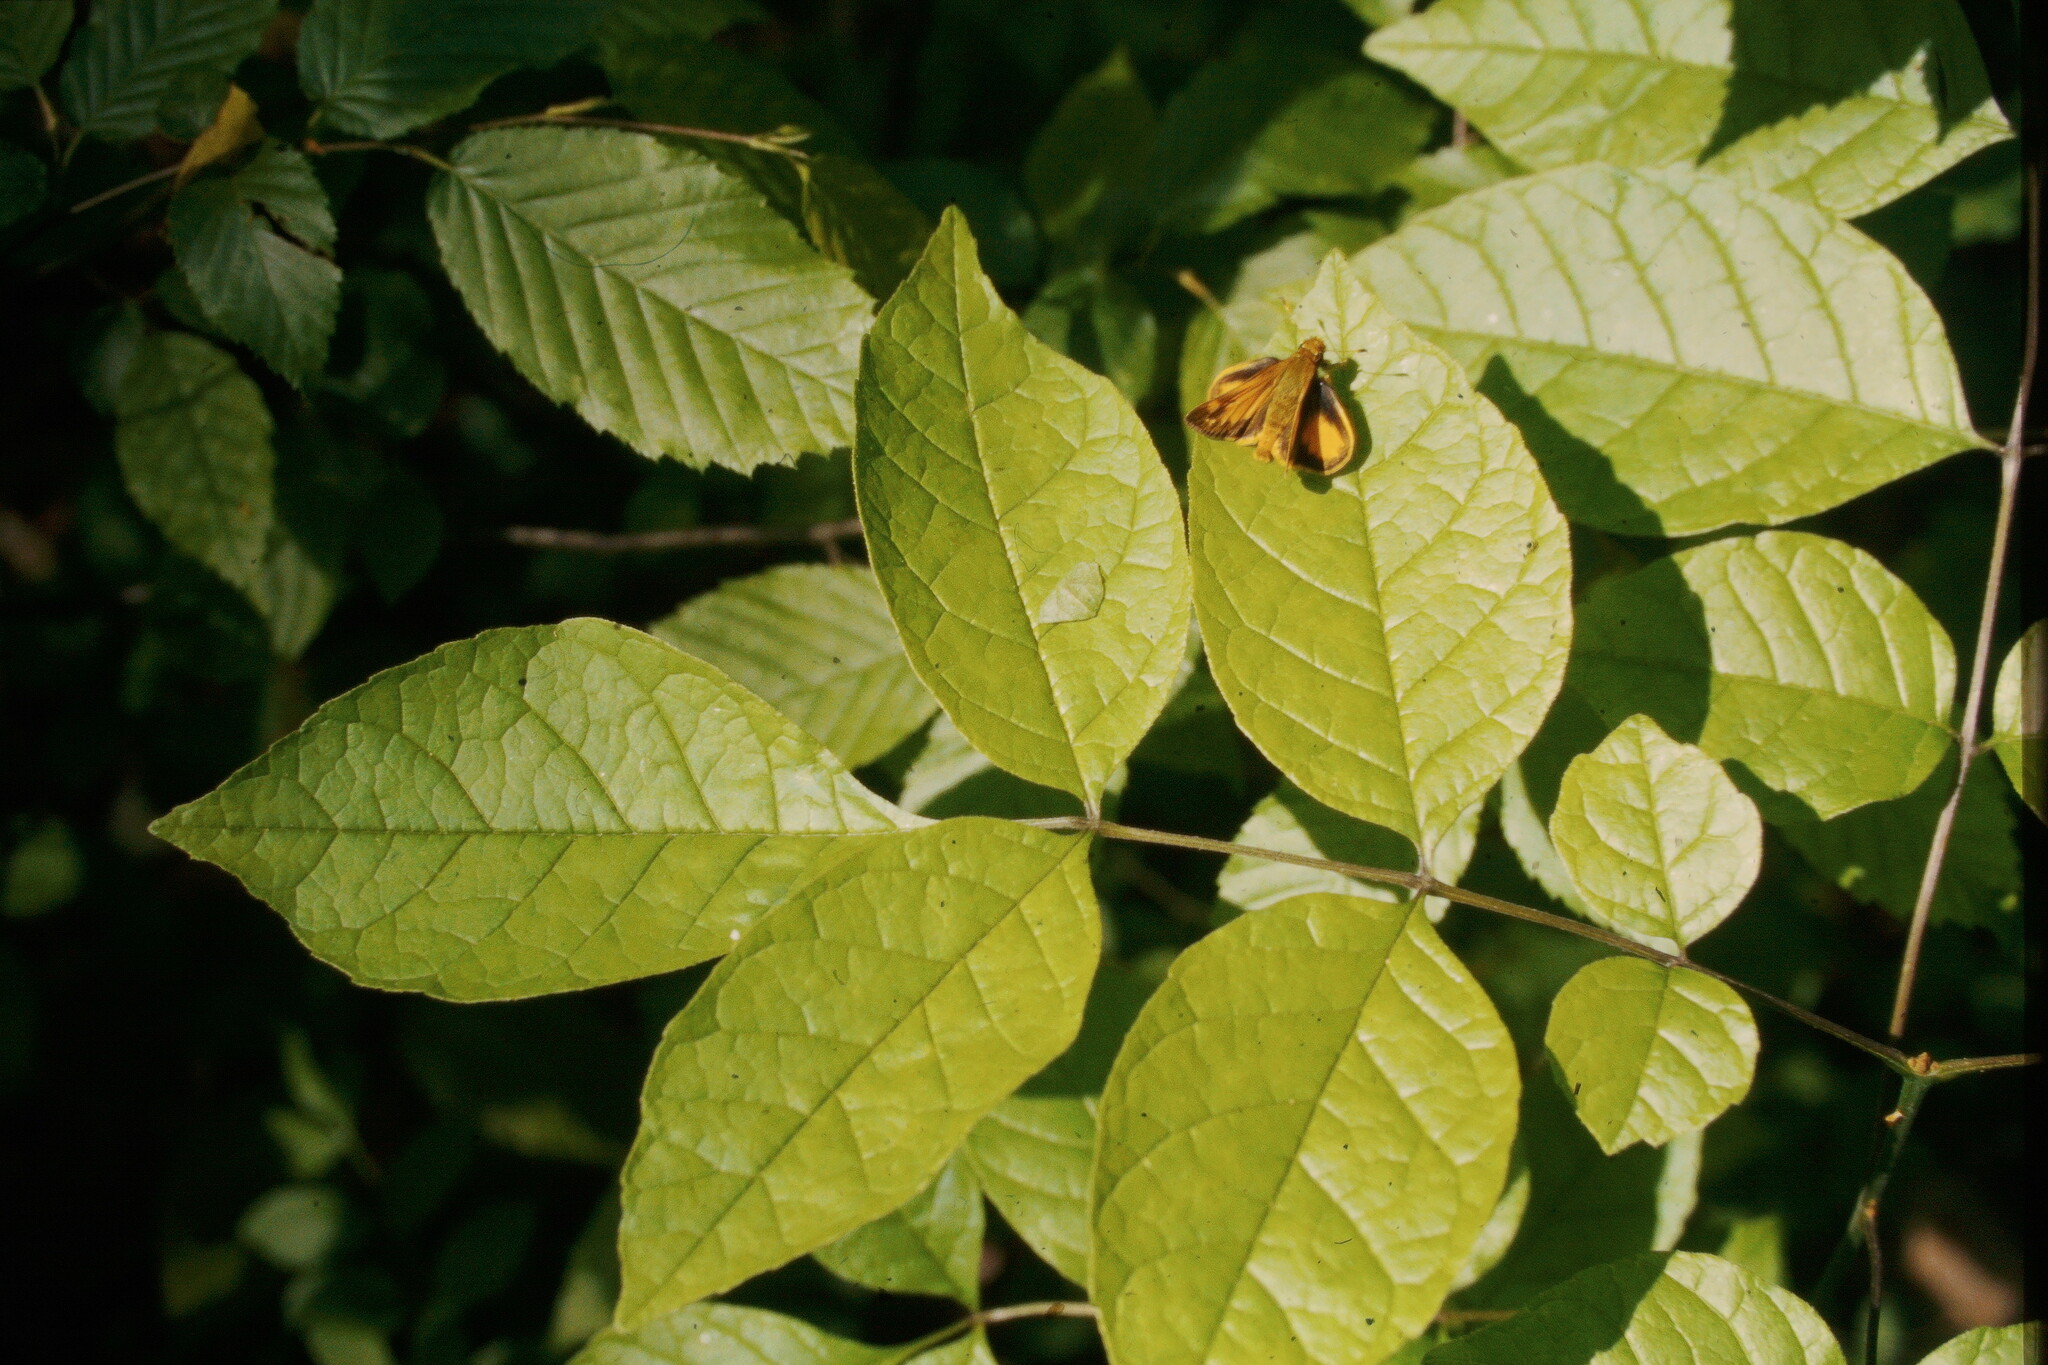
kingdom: Animalia
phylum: Arthropoda
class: Insecta
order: Lepidoptera
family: Hesperiidae
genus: Lon
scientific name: Lon zabulon
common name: Zabulon skipper
